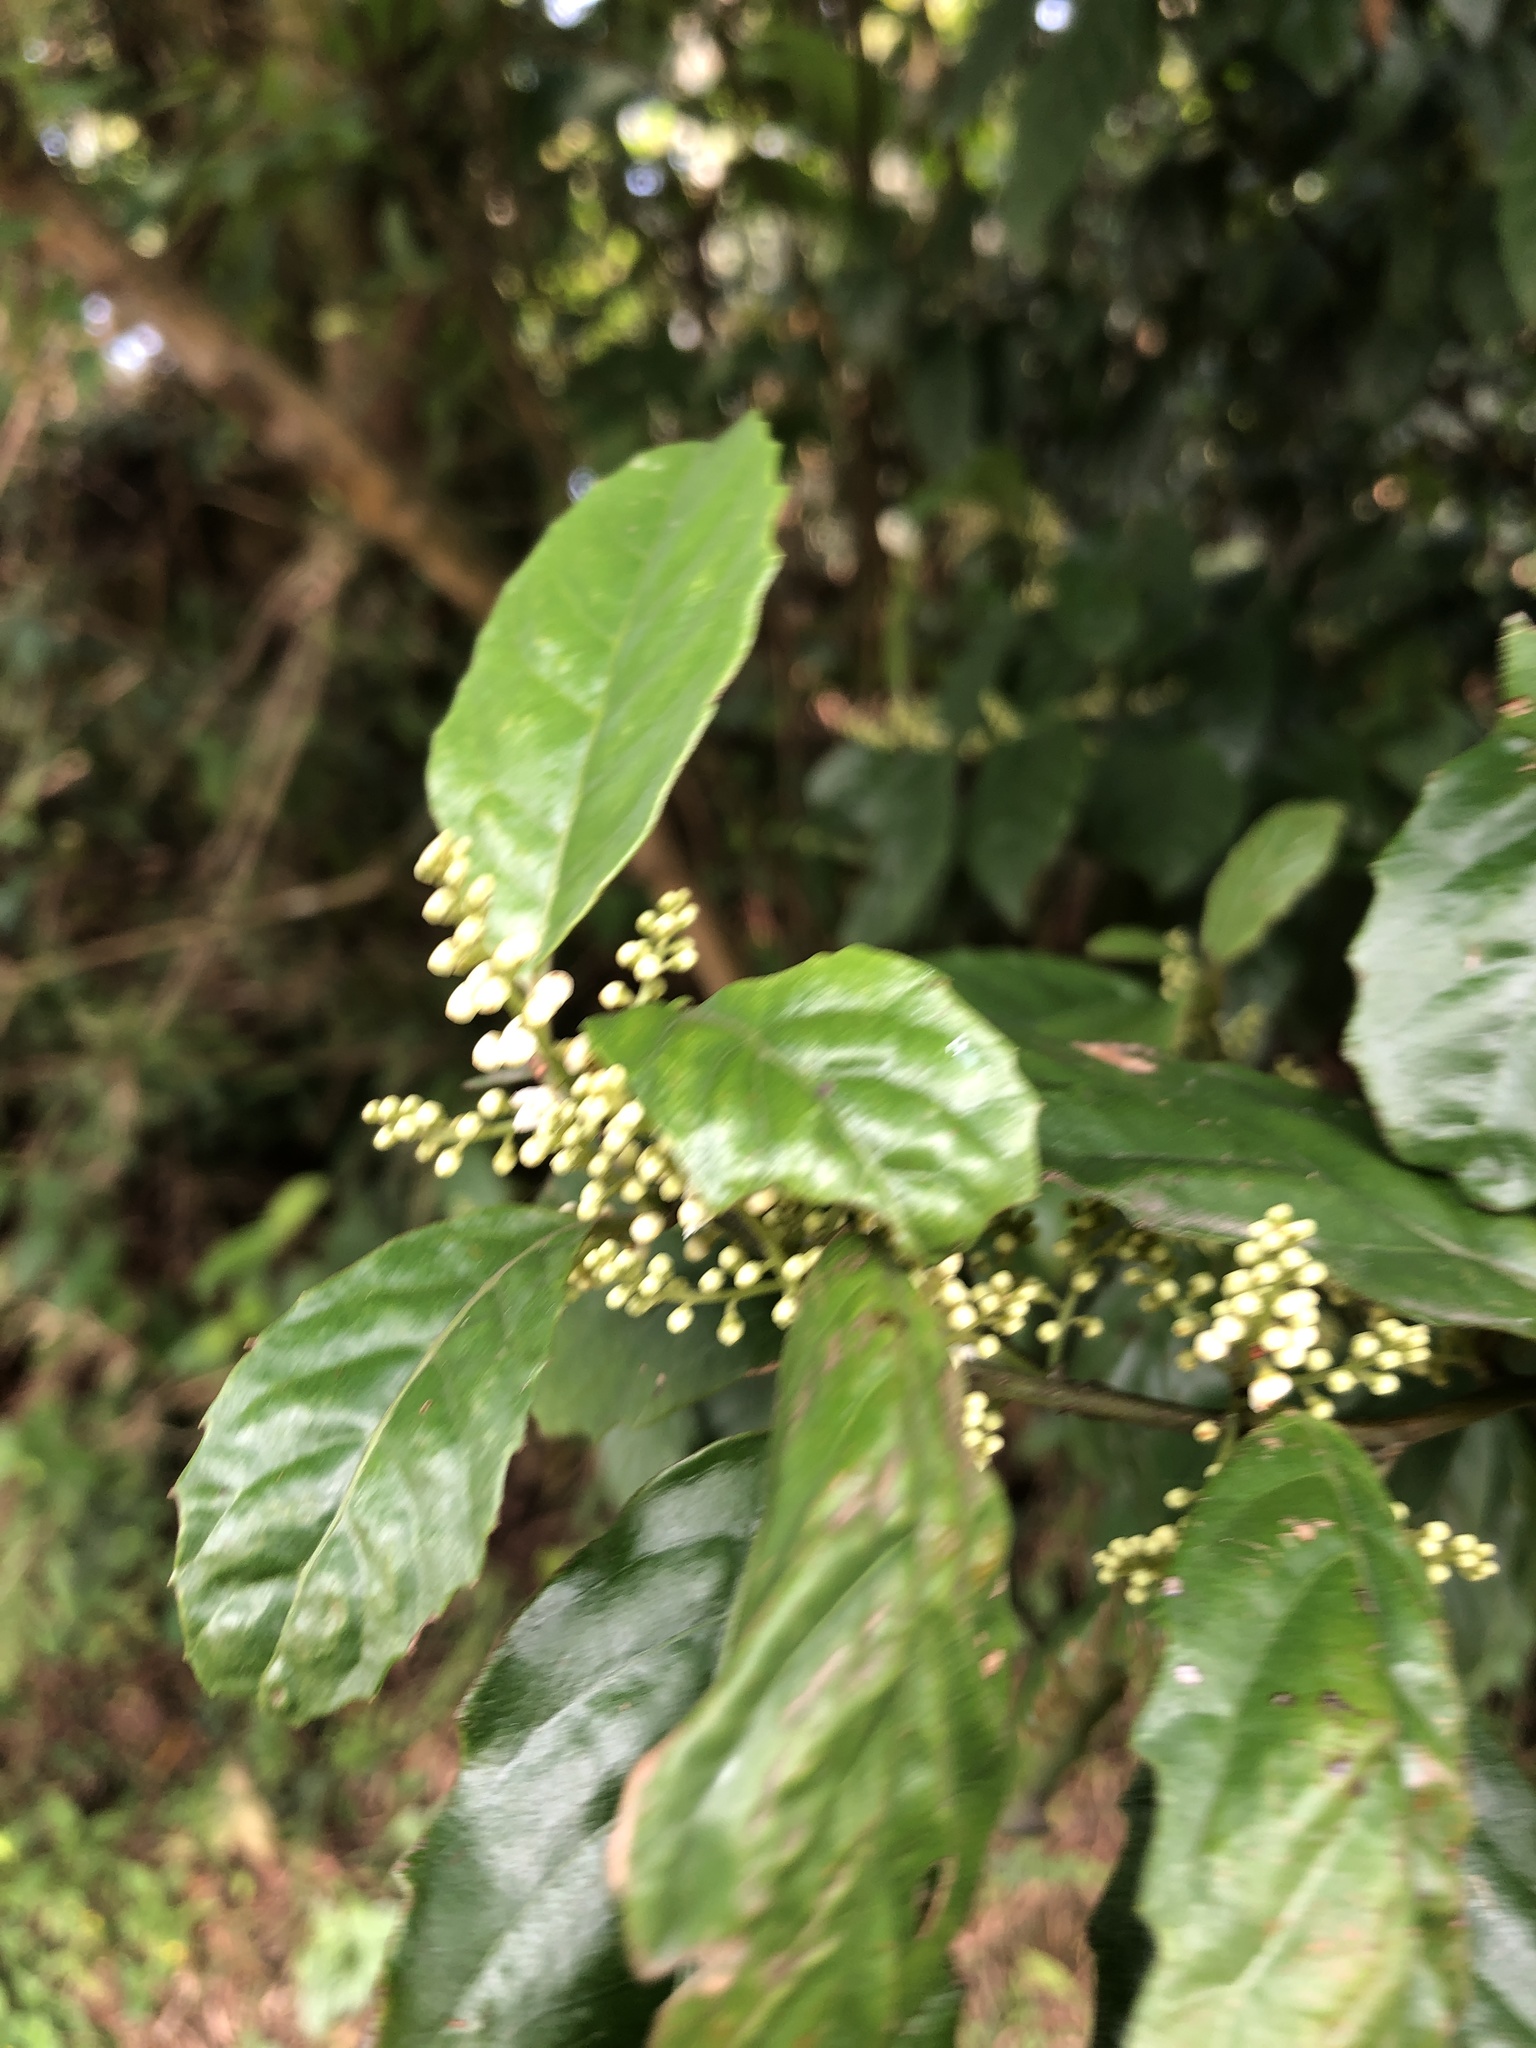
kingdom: Plantae
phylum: Tracheophyta
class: Magnoliopsida
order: Ericales
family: Primulaceae
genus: Maesa
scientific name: Maesa perlaria
